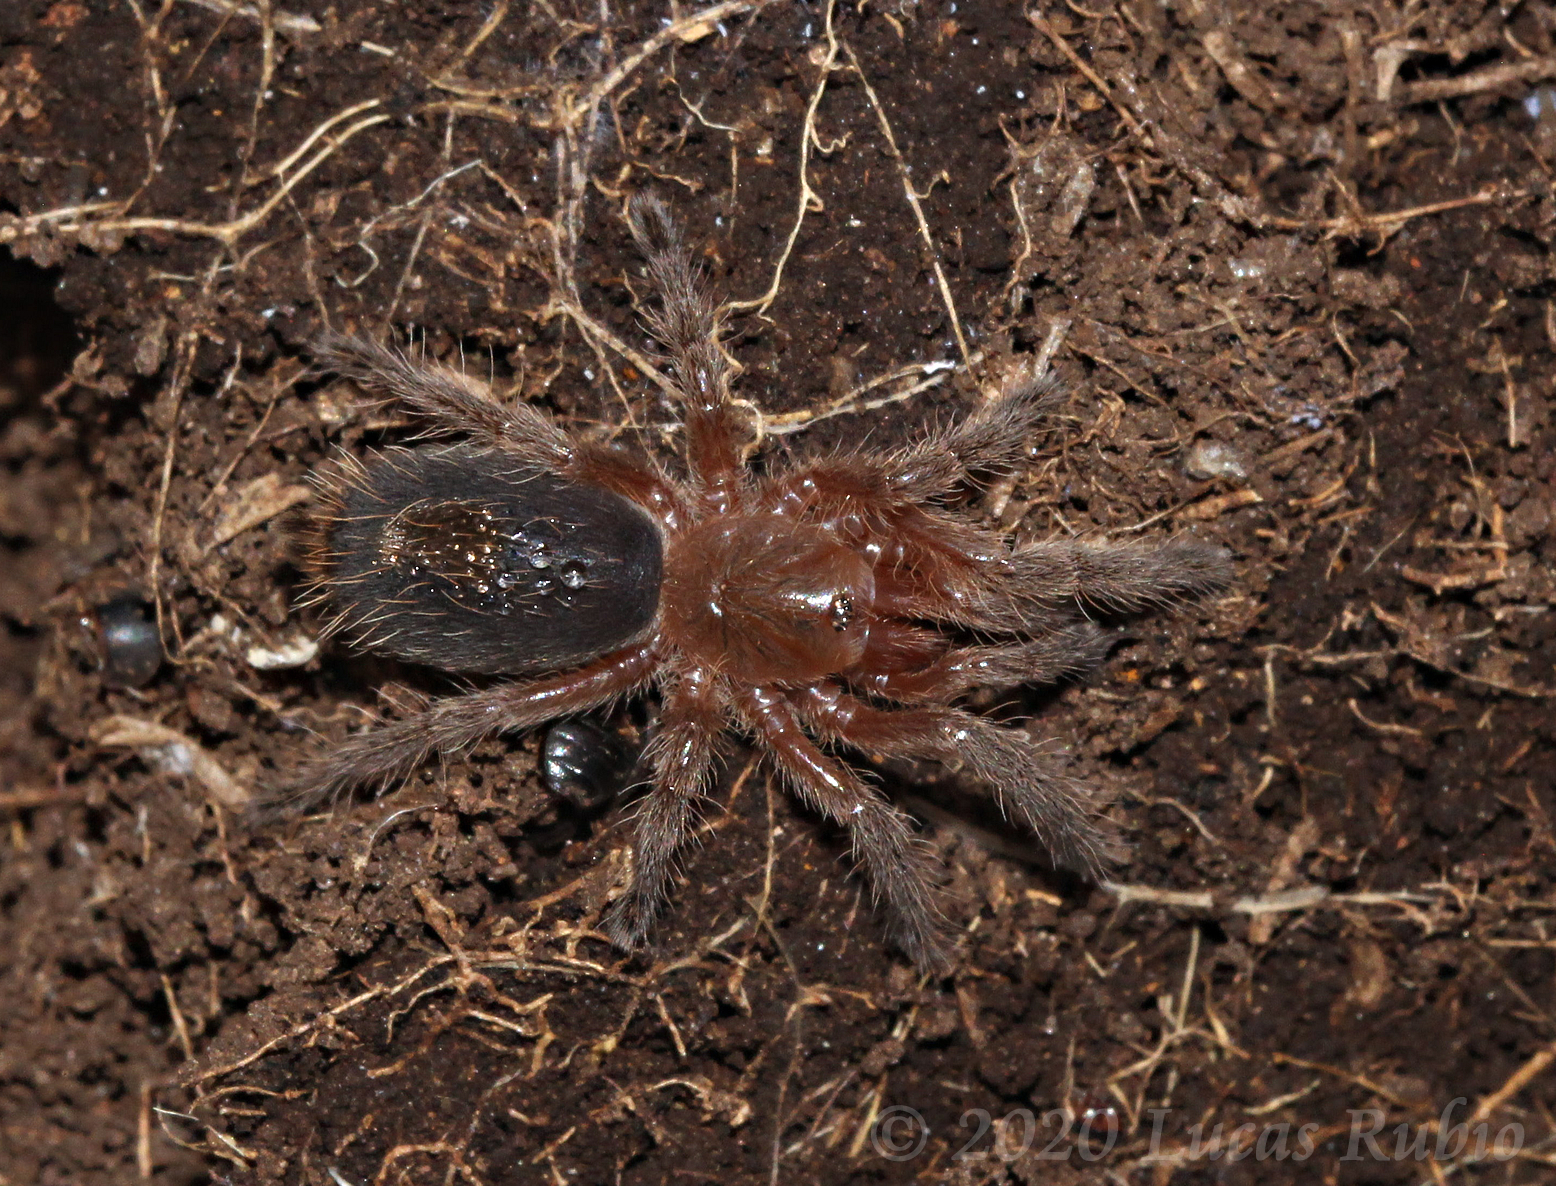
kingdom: Animalia
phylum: Arthropoda
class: Arachnida
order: Araneae
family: Theraphosidae
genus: Plesiopelma
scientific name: Plesiopelma longisternale
